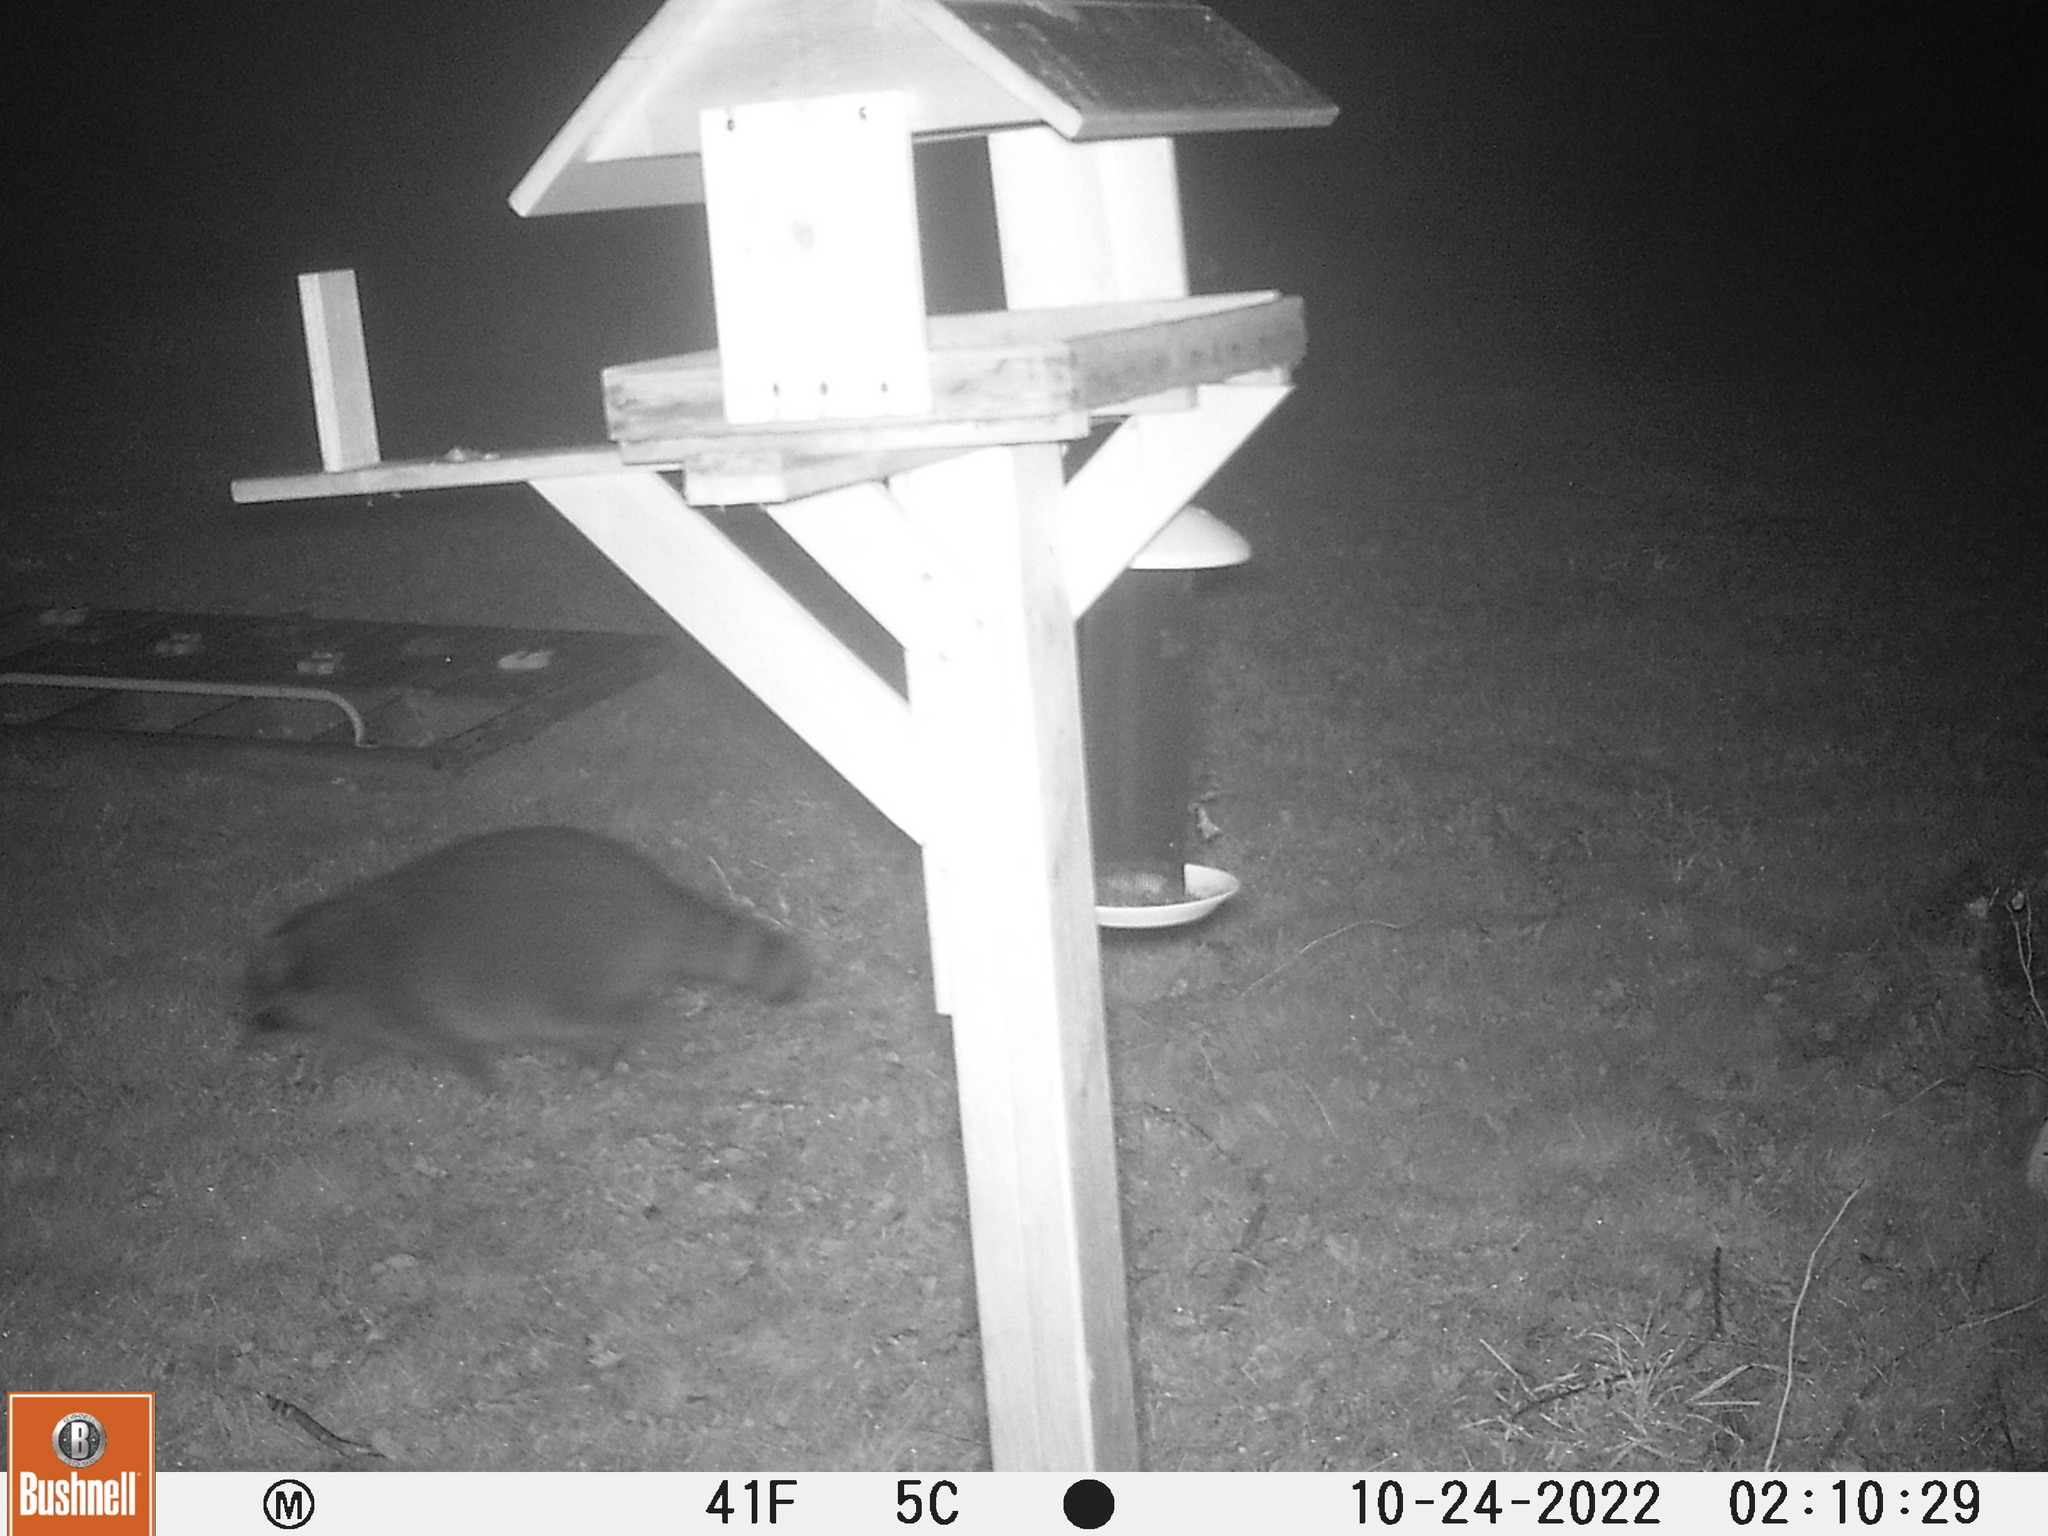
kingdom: Animalia
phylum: Chordata
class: Mammalia
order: Carnivora
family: Procyonidae
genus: Procyon
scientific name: Procyon lotor
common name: Raccoon
